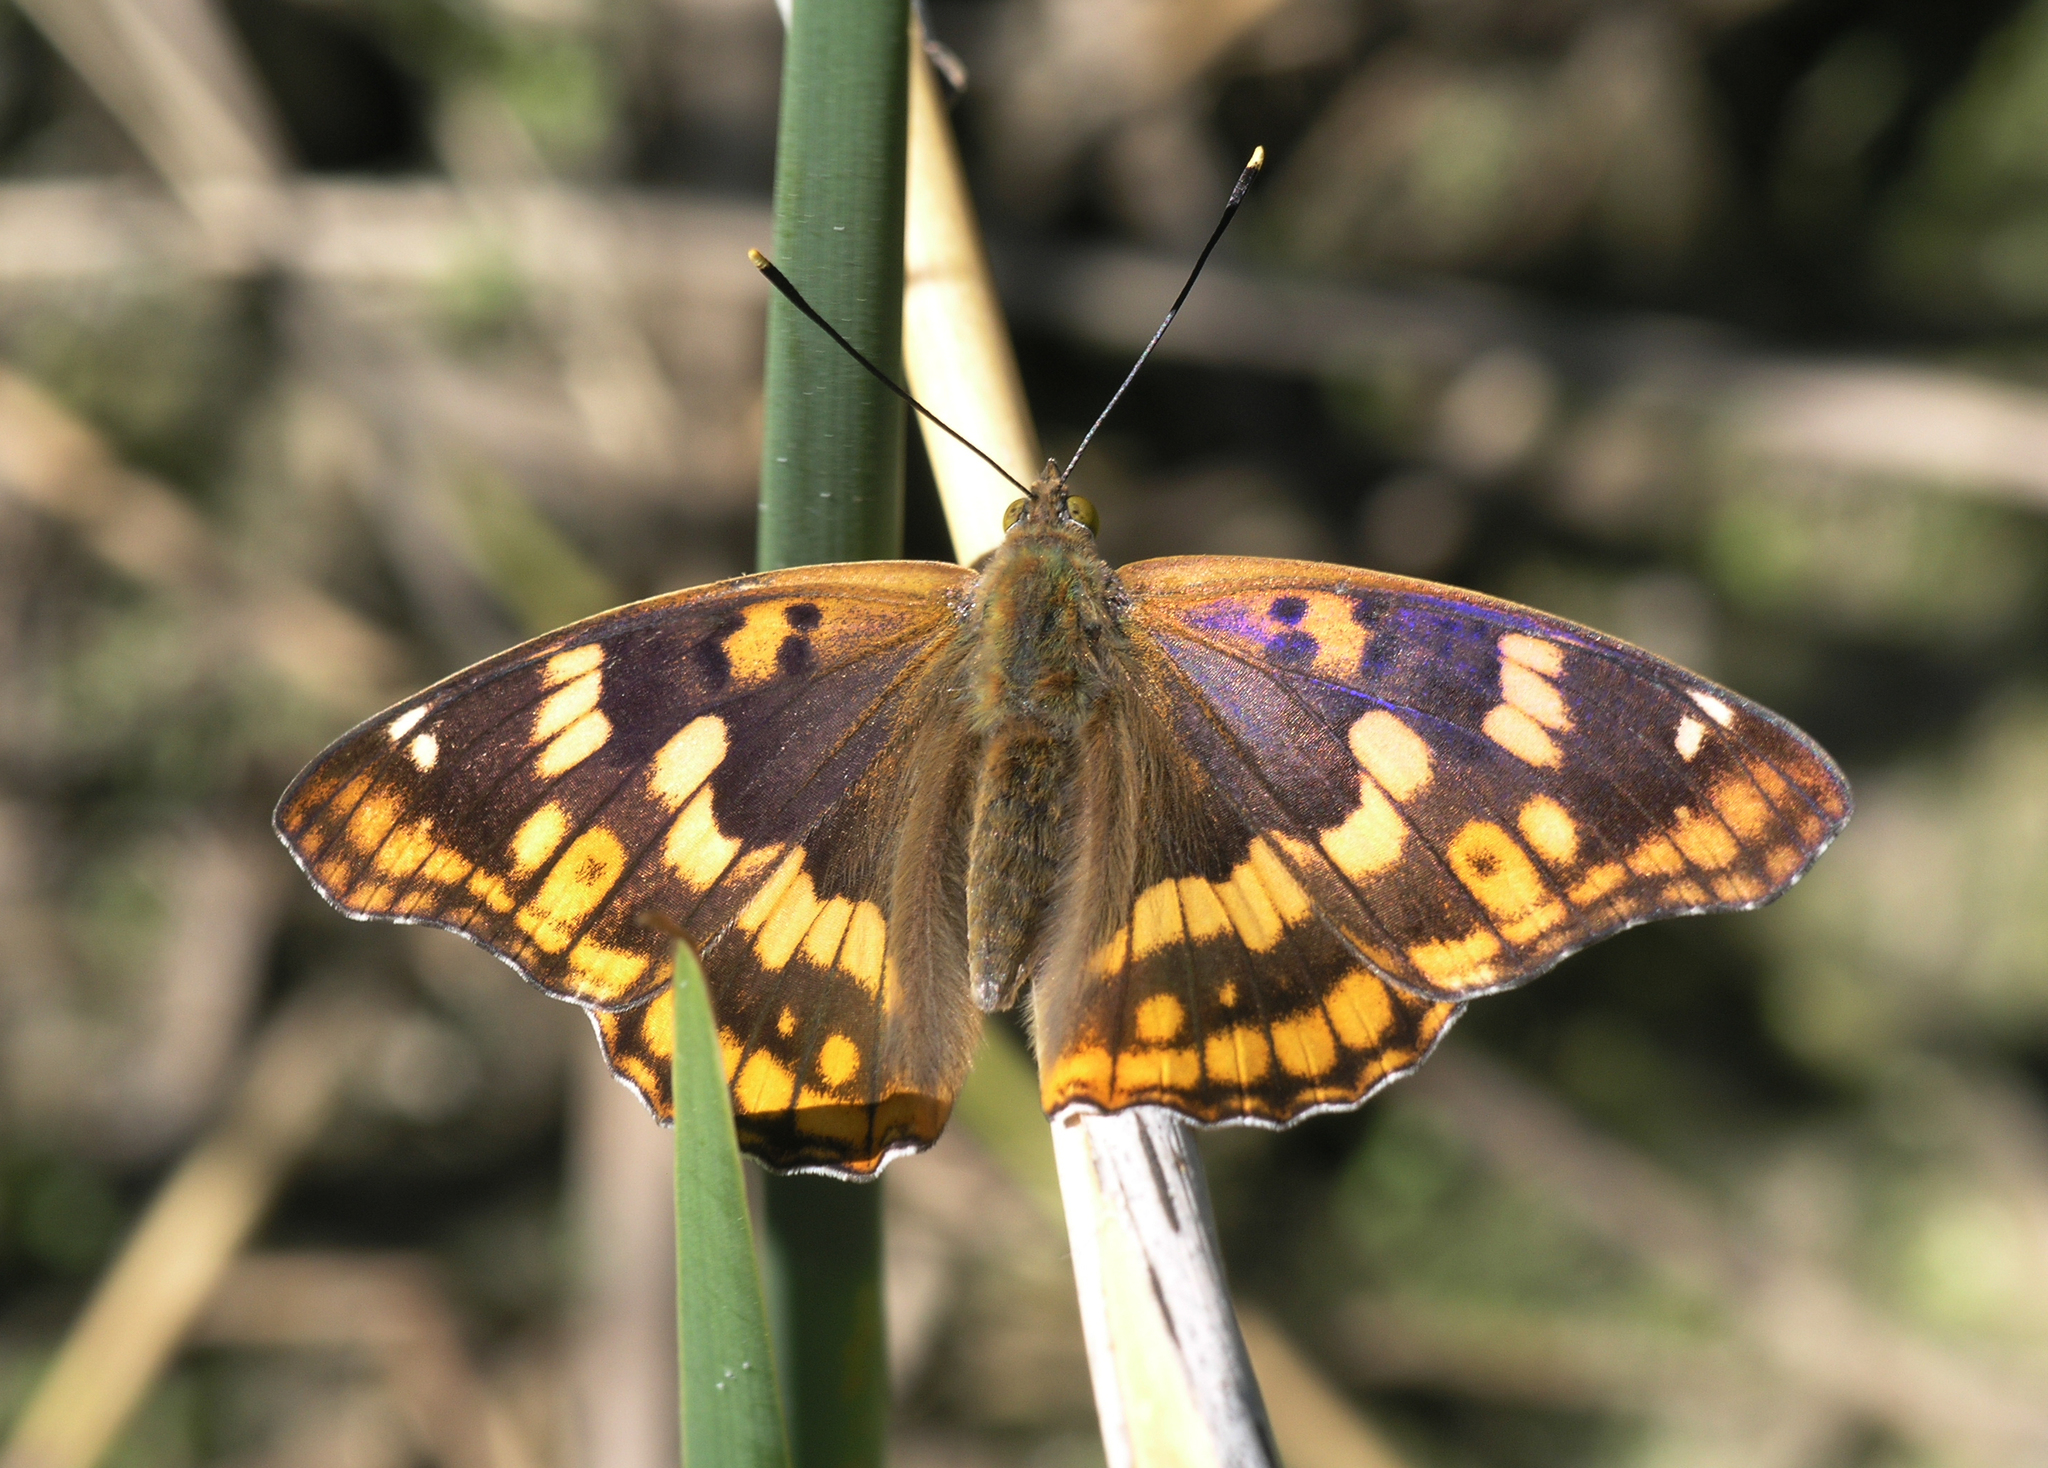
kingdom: Animalia
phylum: Arthropoda
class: Insecta
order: Lepidoptera
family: Nymphalidae
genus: Apatura
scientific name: Apatura ilia
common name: Lesser purple emperor
